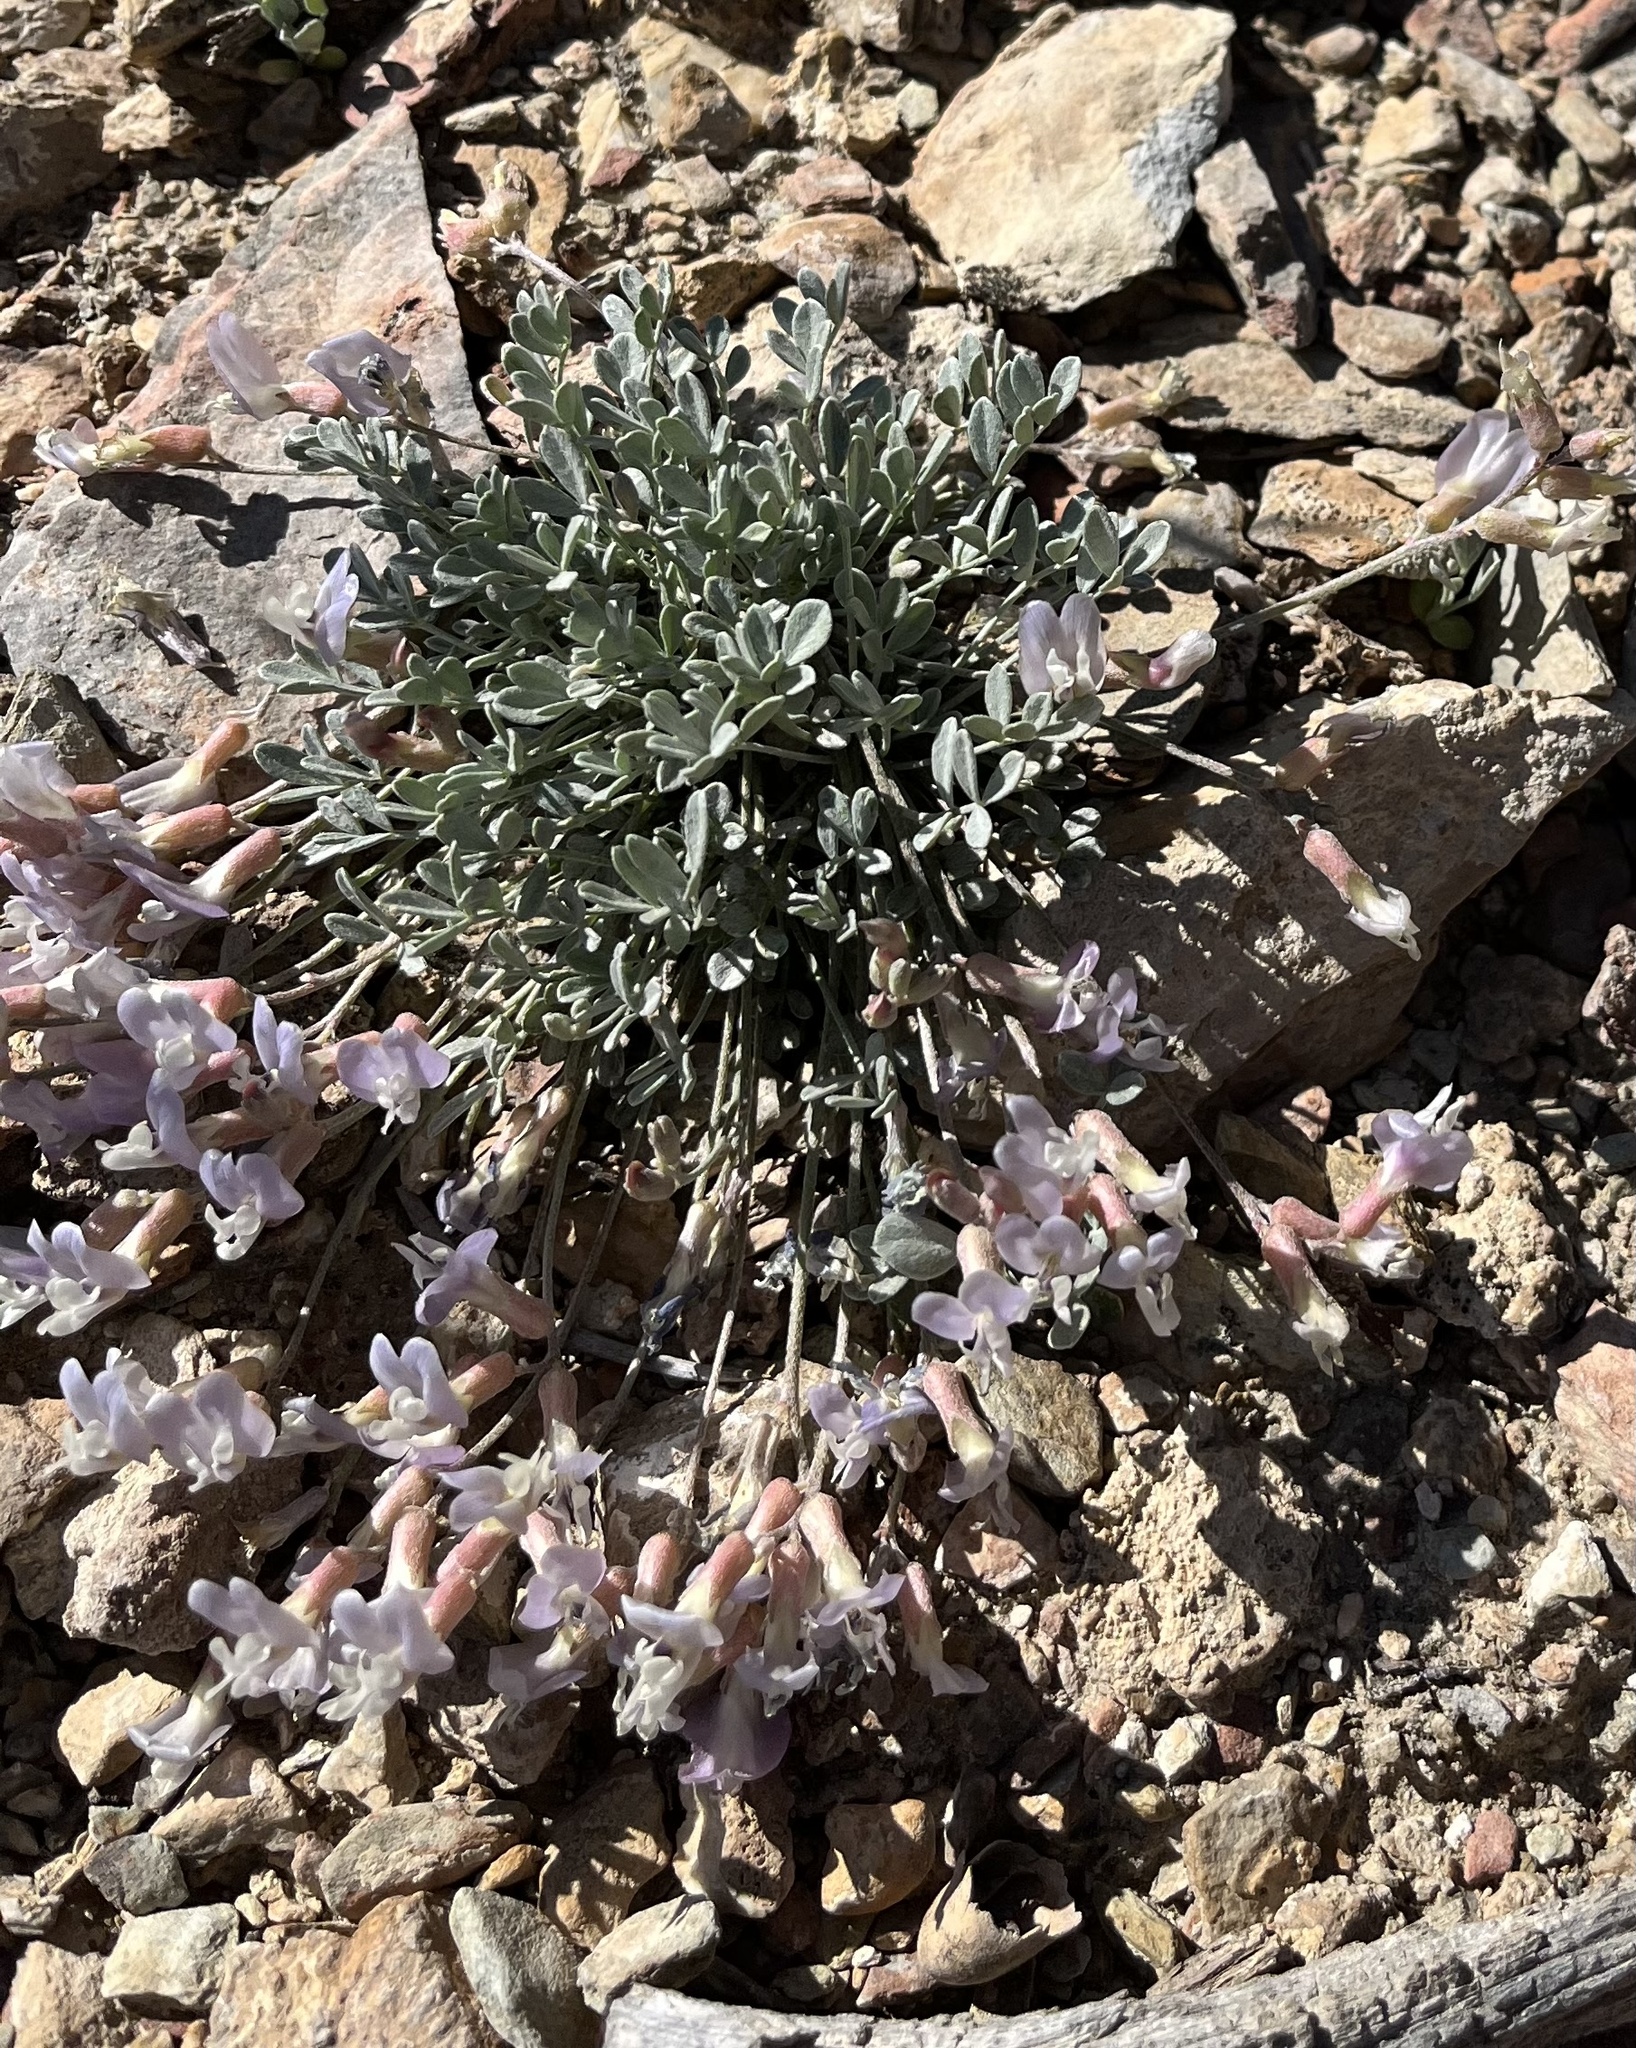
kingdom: Plantae
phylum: Tracheophyta
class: Magnoliopsida
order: Fabales
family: Fabaceae
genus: Astragalus
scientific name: Astragalus calycosus
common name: King's milkvetch
